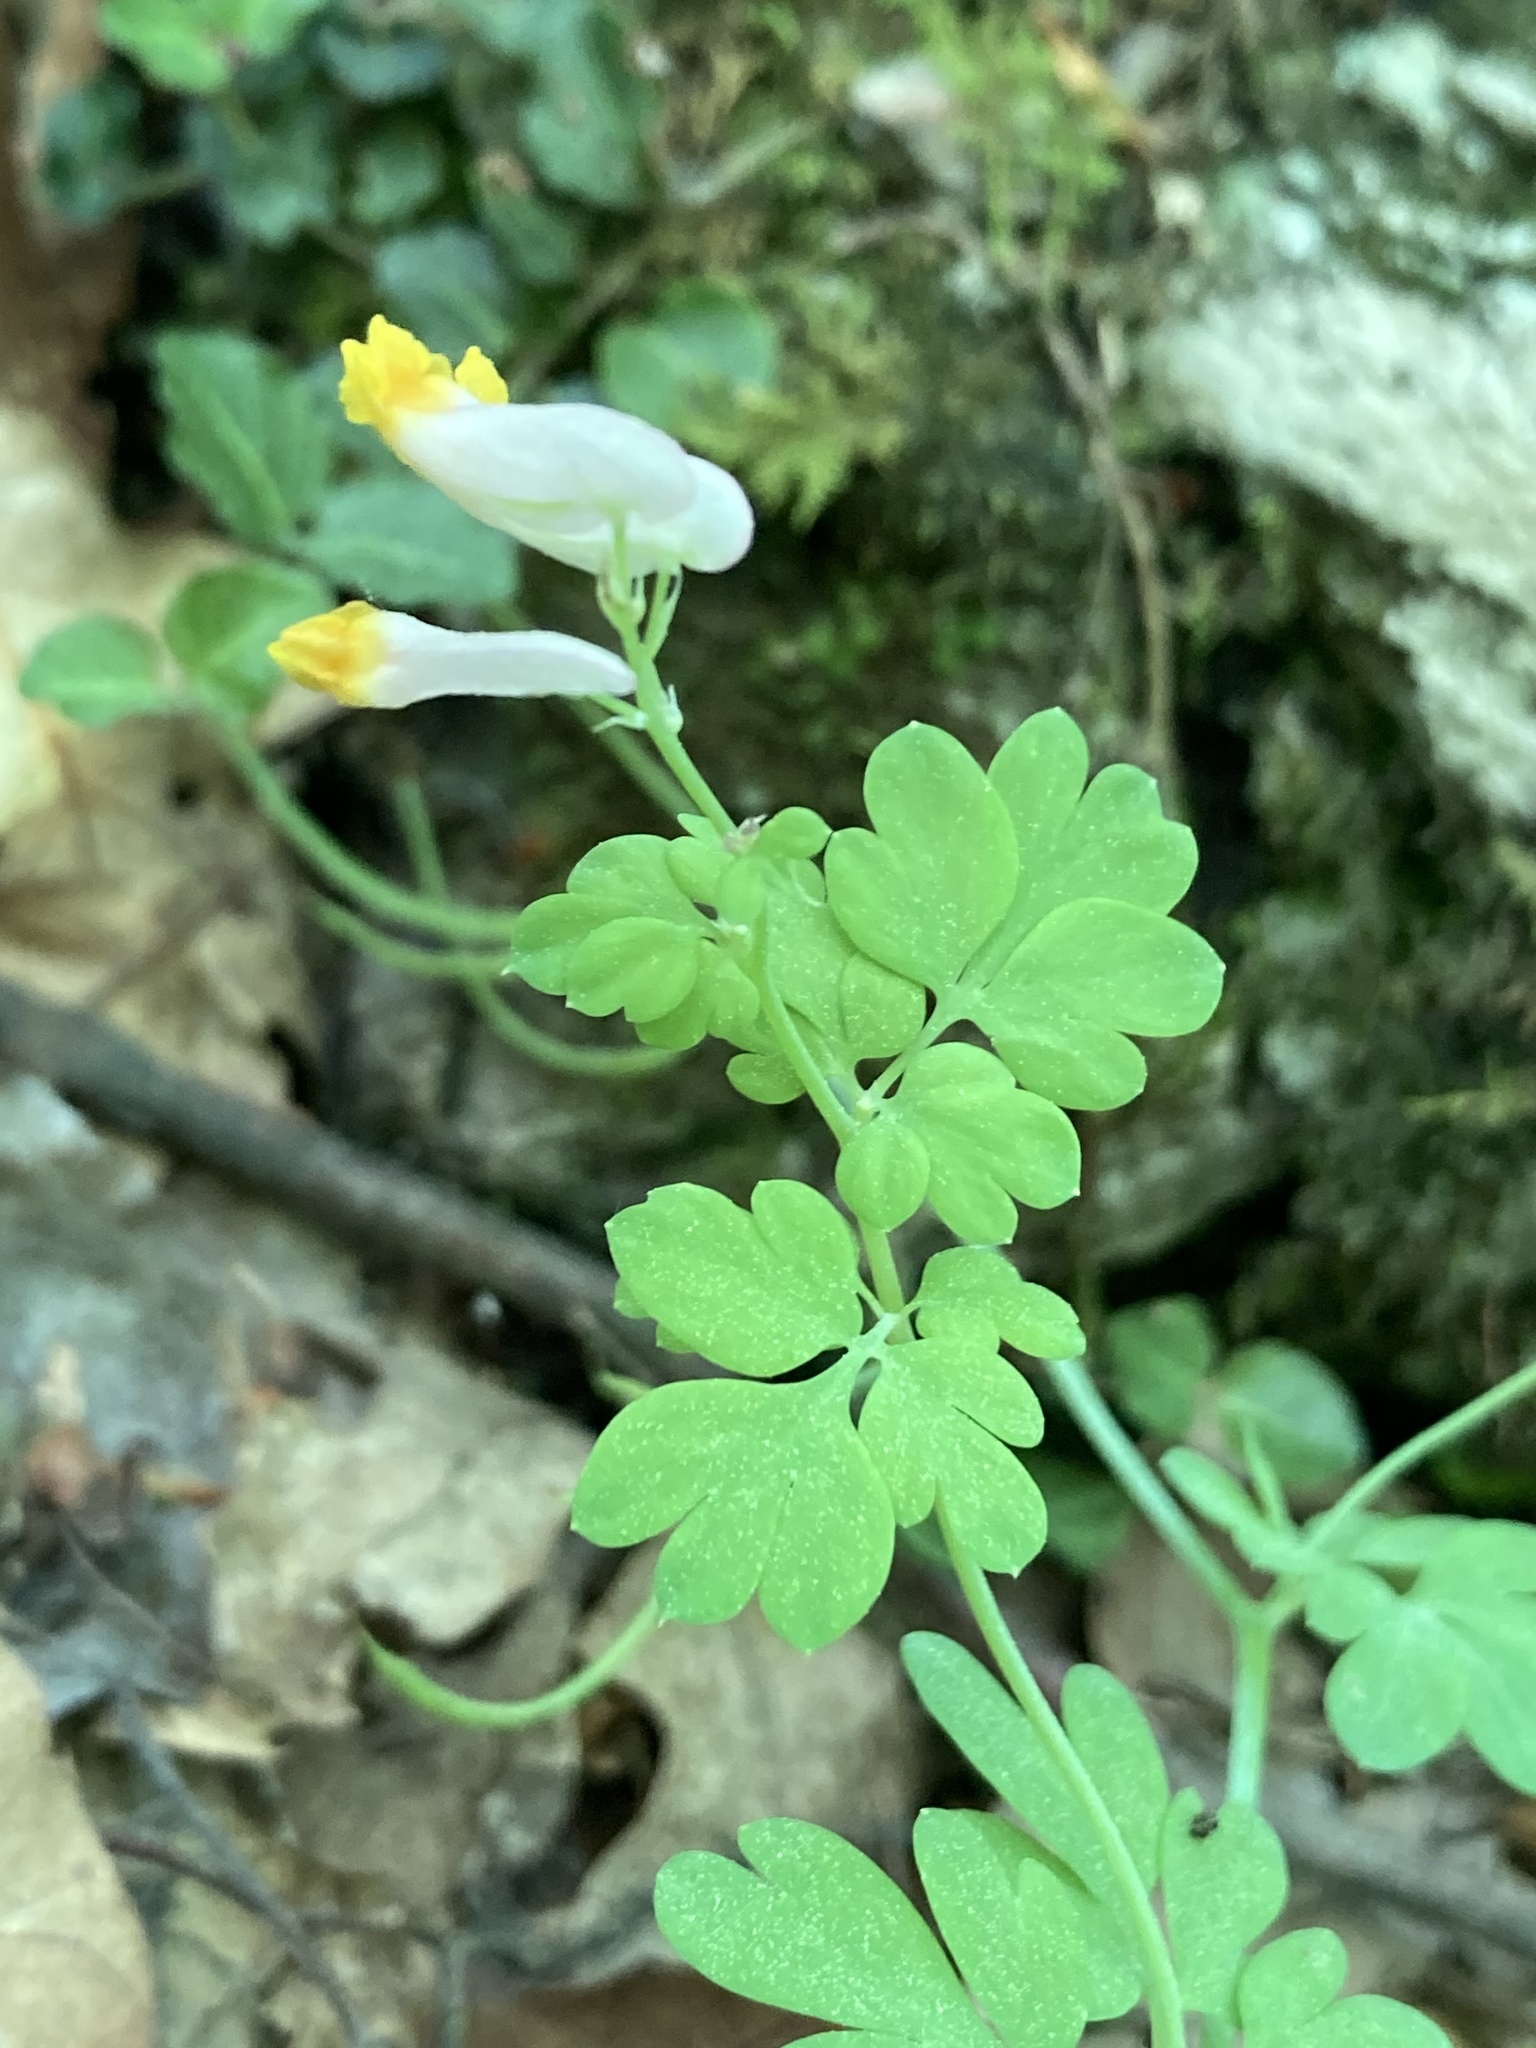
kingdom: Plantae
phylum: Tracheophyta
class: Magnoliopsida
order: Ranunculales
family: Papaveraceae
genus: Capnoides
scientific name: Capnoides sempervirens
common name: Rock harlequin
